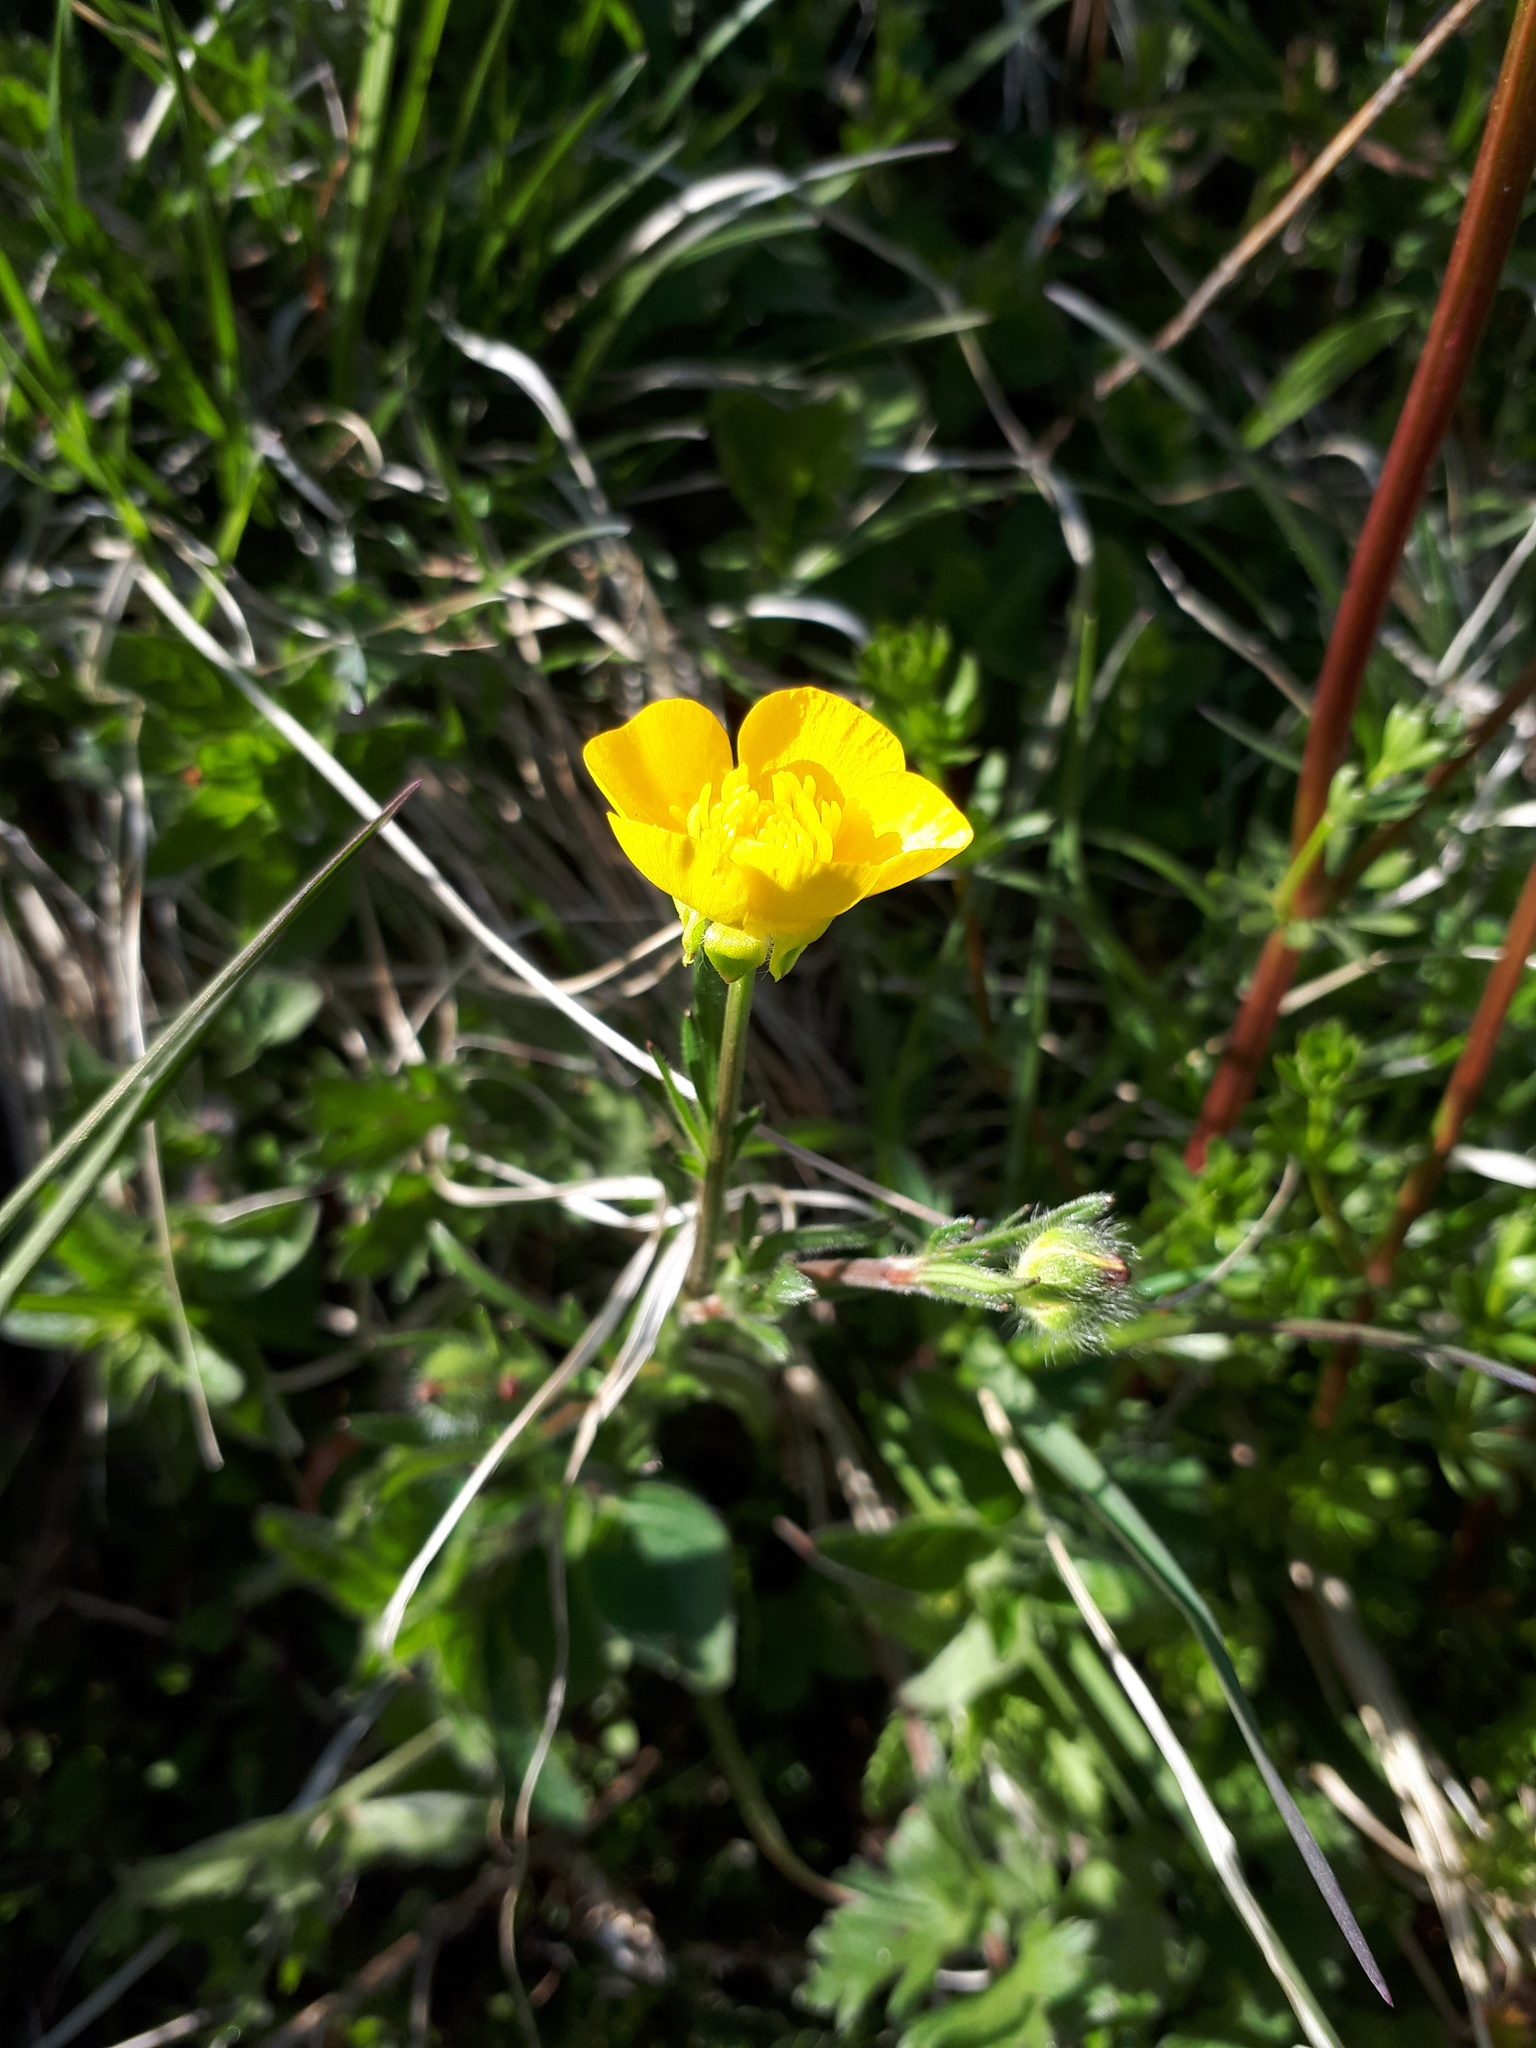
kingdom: Plantae
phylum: Tracheophyta
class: Magnoliopsida
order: Ranunculales
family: Ranunculaceae
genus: Ranunculus
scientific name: Ranunculus bulbosus
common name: Bulbous buttercup
